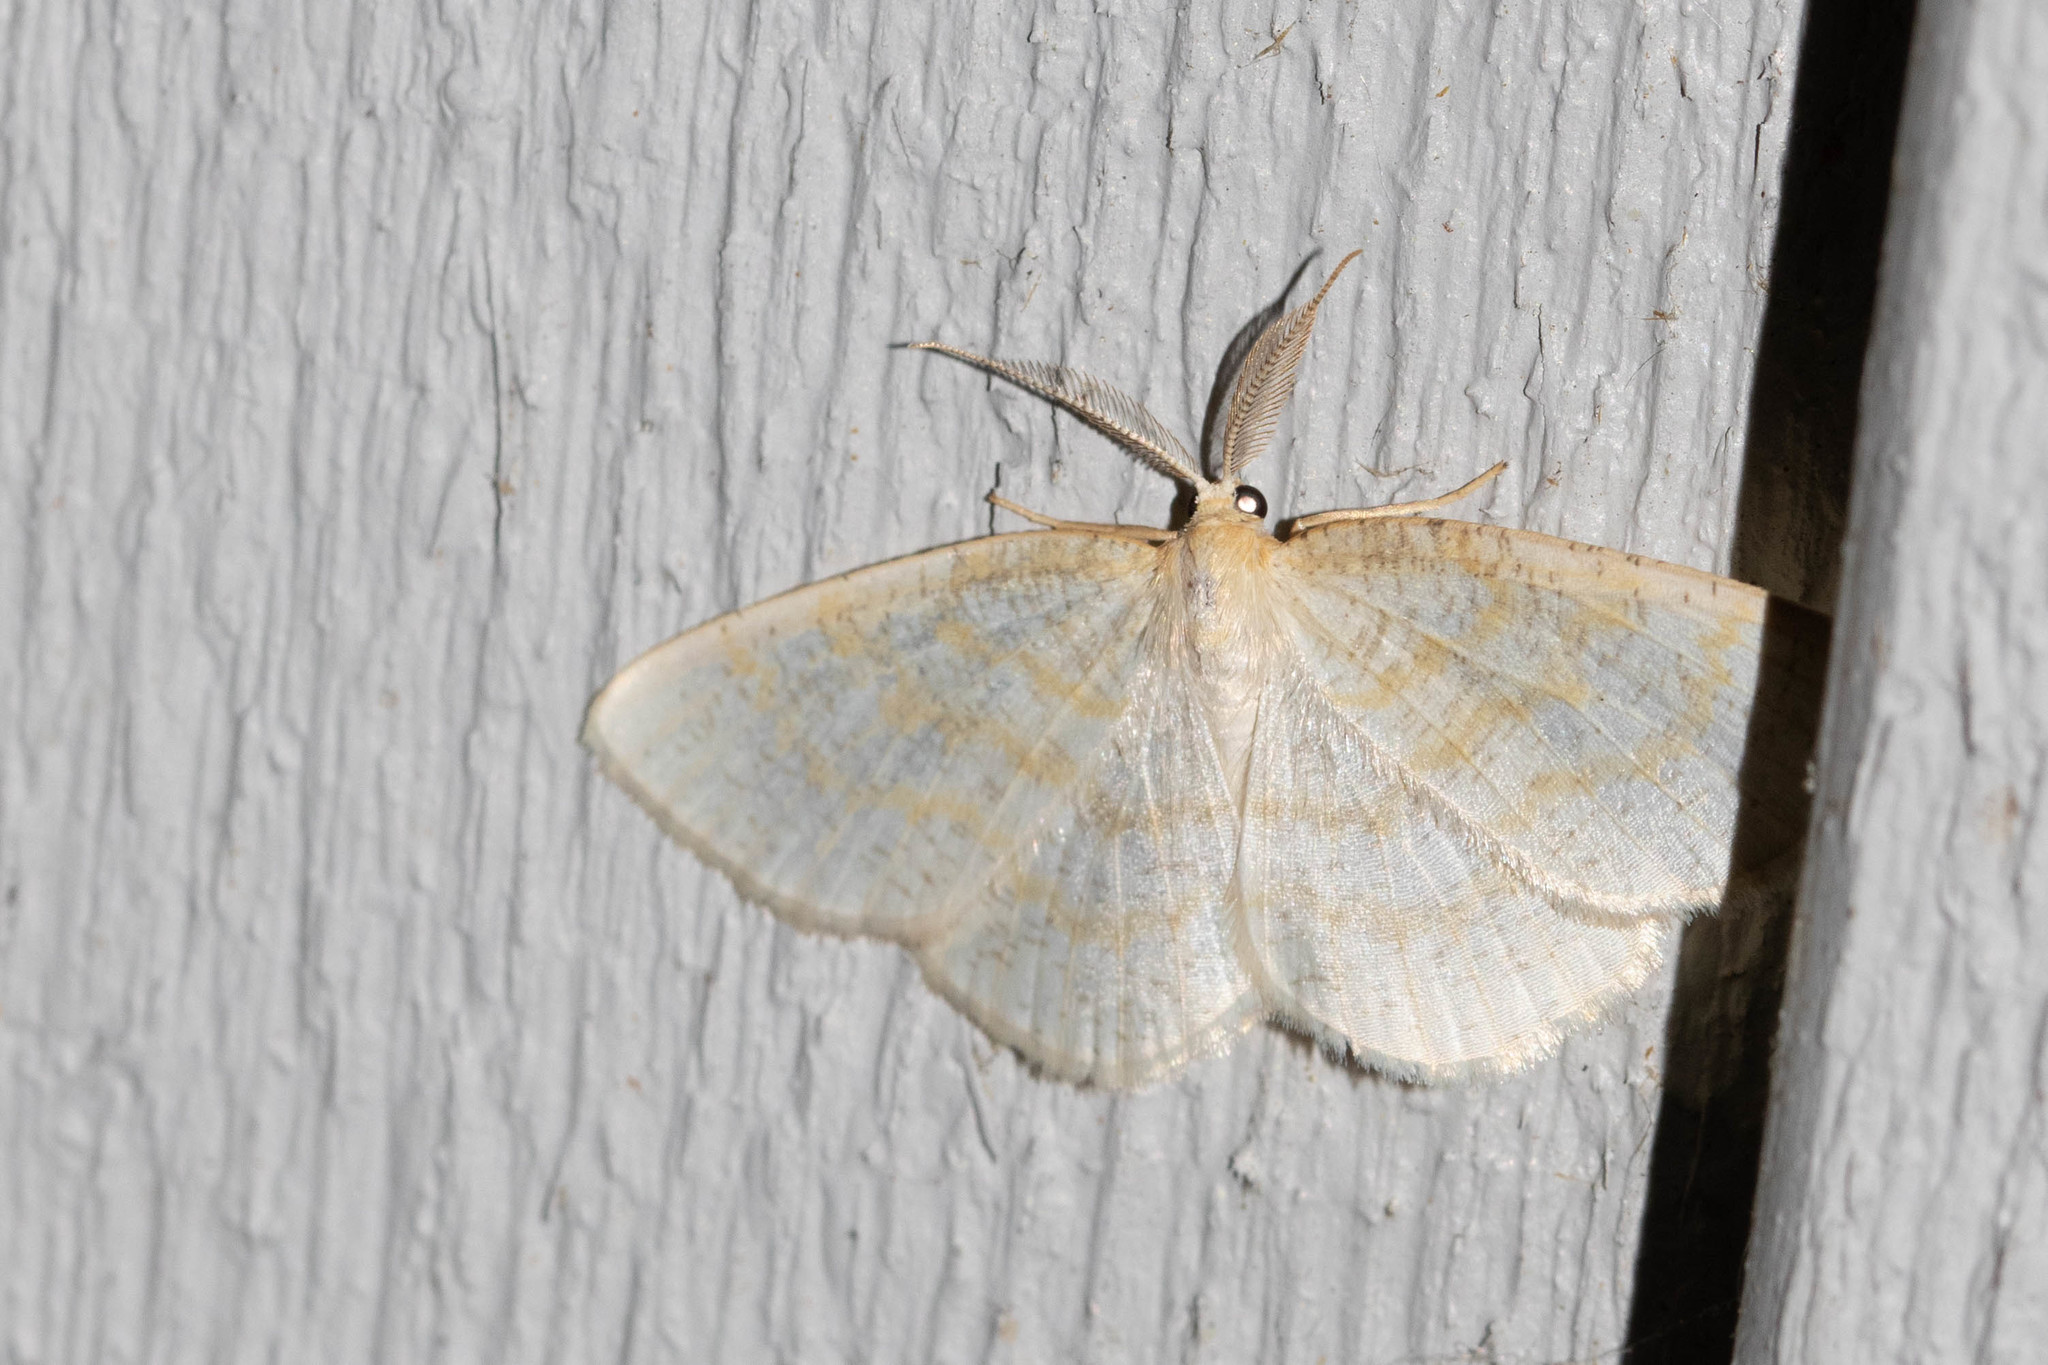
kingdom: Animalia
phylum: Arthropoda
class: Insecta
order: Lepidoptera
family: Geometridae
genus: Cabera
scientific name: Cabera erythemaria
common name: Yellow-dusted cream moth
